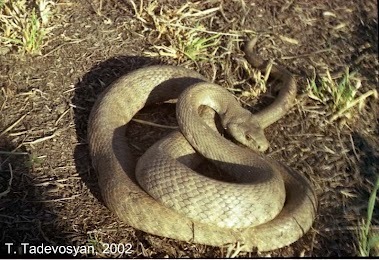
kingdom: Animalia
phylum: Chordata
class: Squamata
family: Colubridae
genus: Hemorrhois
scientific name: Hemorrhois nummifer
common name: Asian racer
